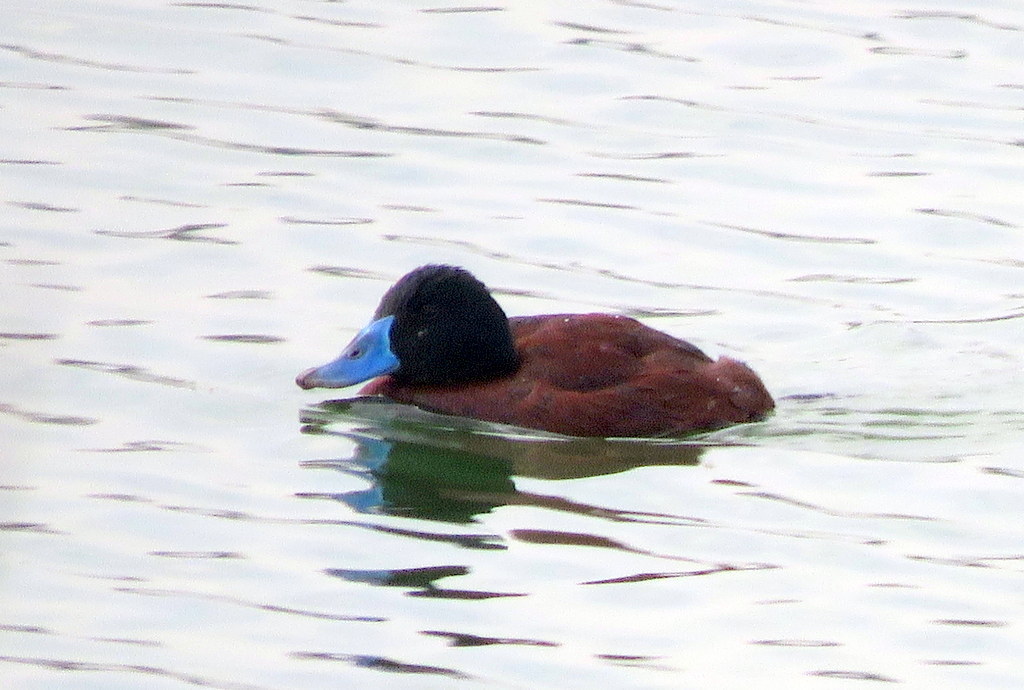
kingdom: Animalia
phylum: Chordata
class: Aves
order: Anseriformes
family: Anatidae
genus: Oxyura
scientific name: Oxyura vittata
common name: Lake duck
